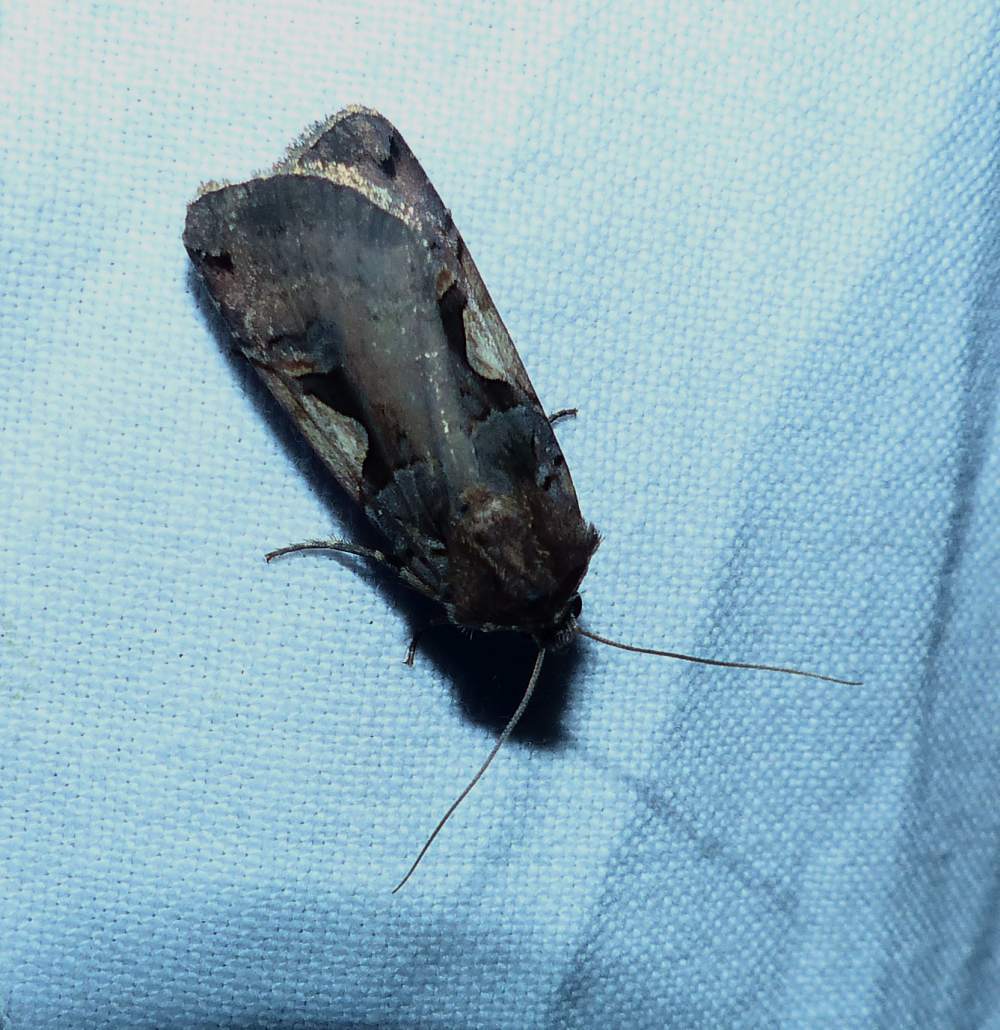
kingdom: Animalia
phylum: Arthropoda
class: Insecta
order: Lepidoptera
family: Noctuidae
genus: Xestia
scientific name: Xestia
